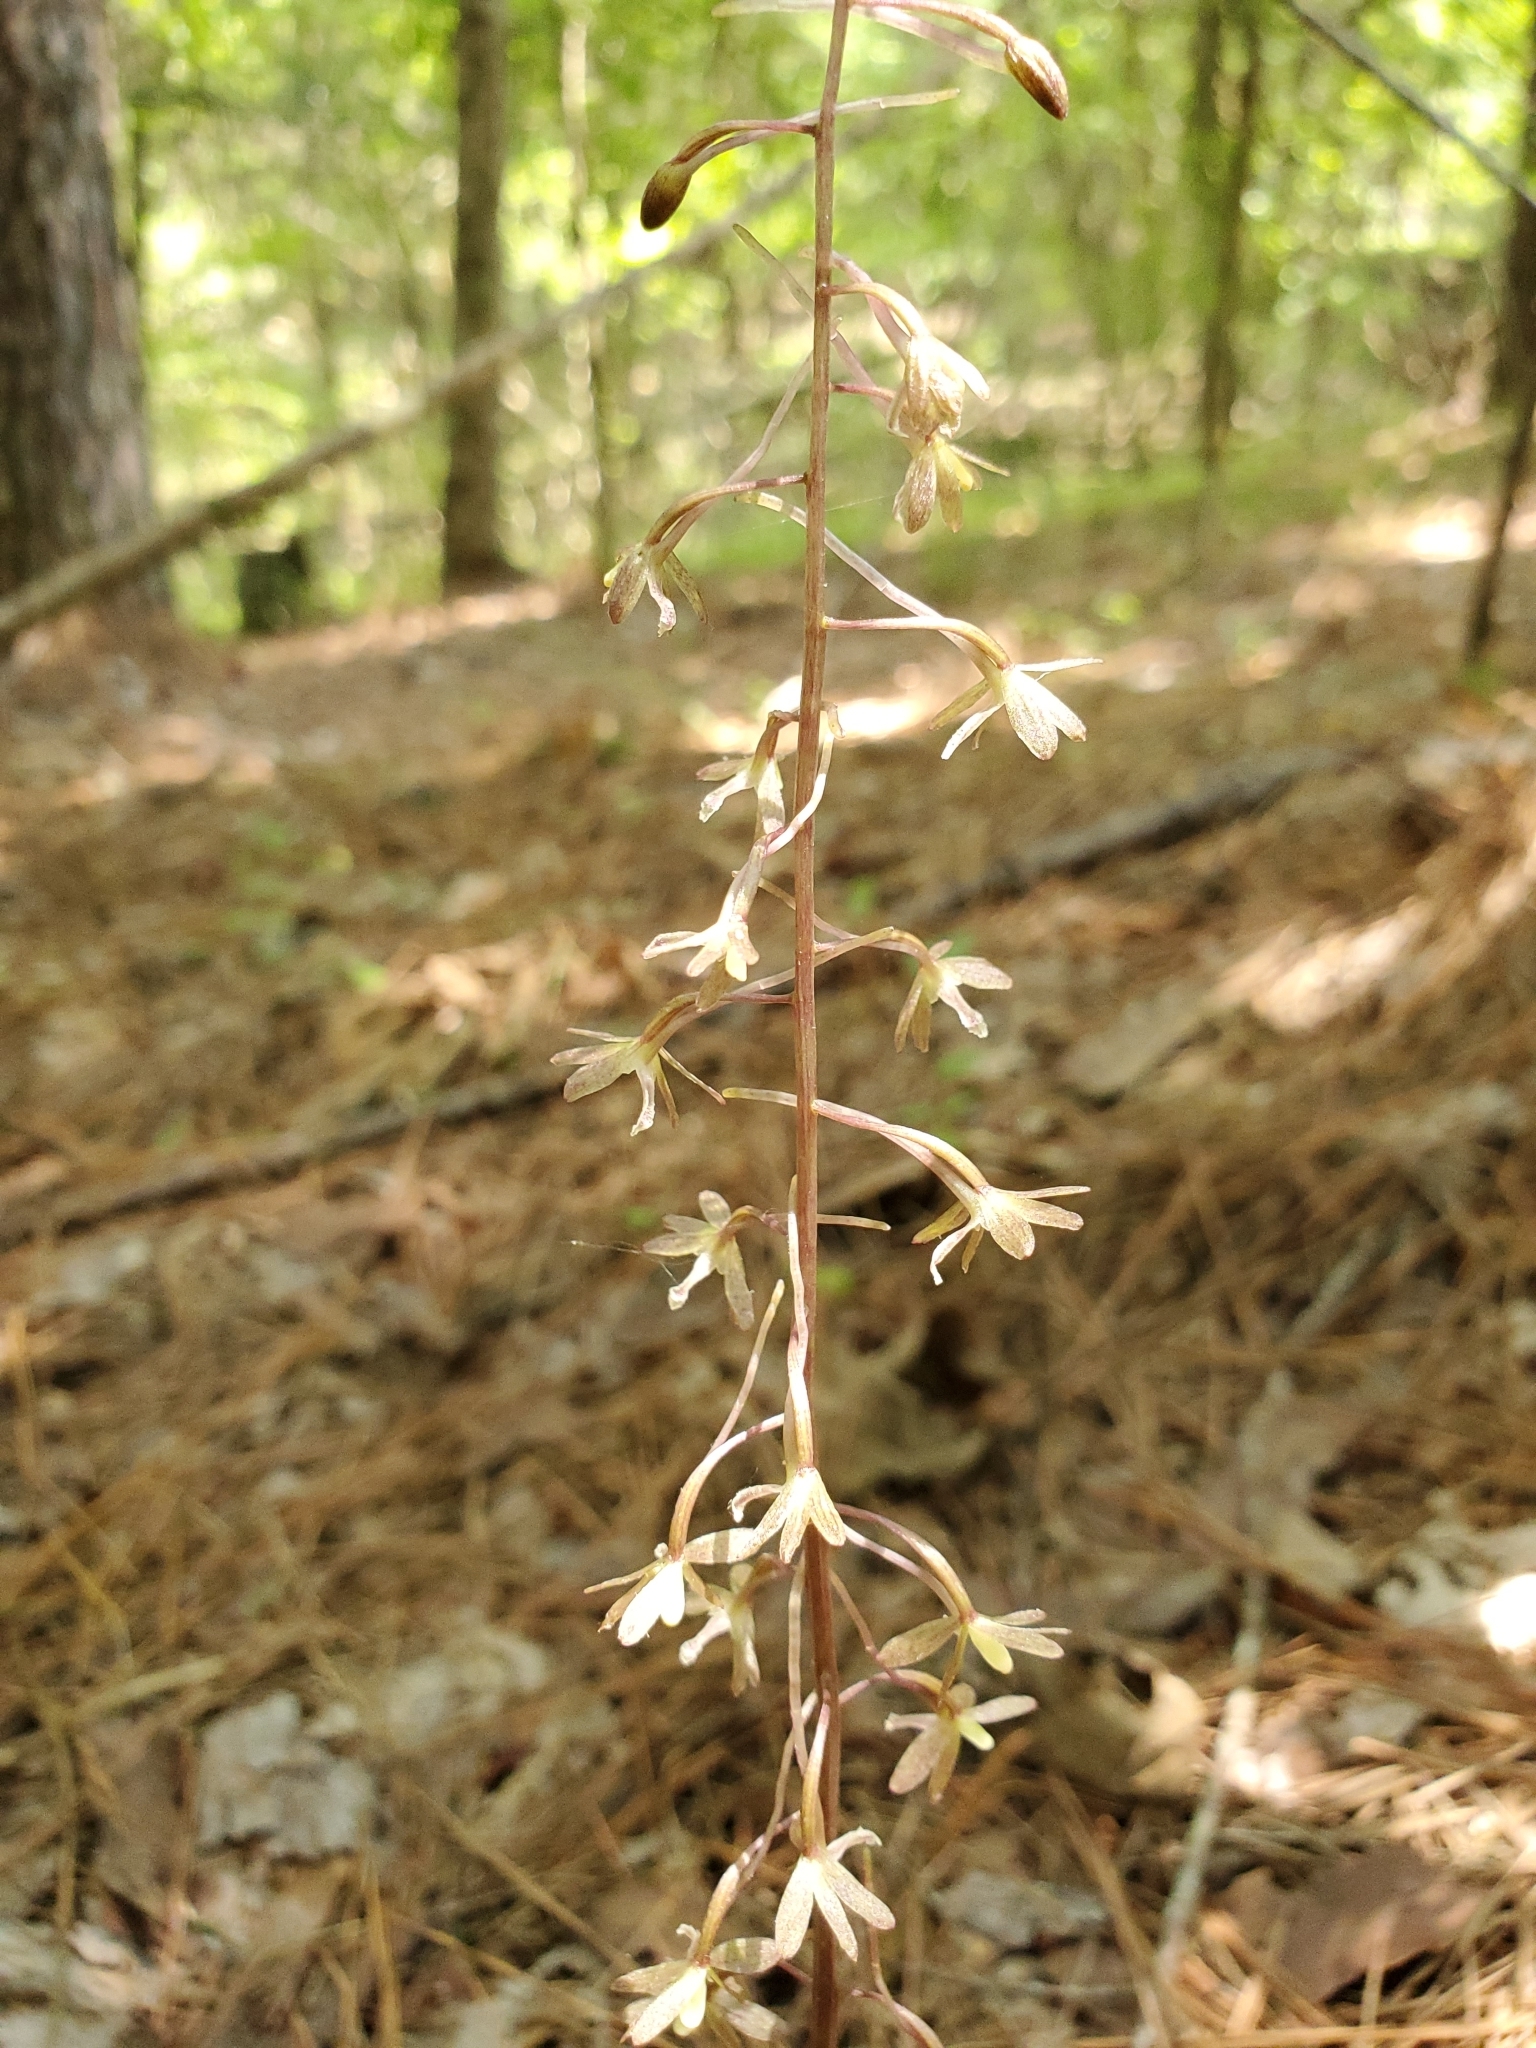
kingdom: Plantae
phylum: Tracheophyta
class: Liliopsida
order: Asparagales
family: Orchidaceae
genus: Tipularia
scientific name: Tipularia discolor
